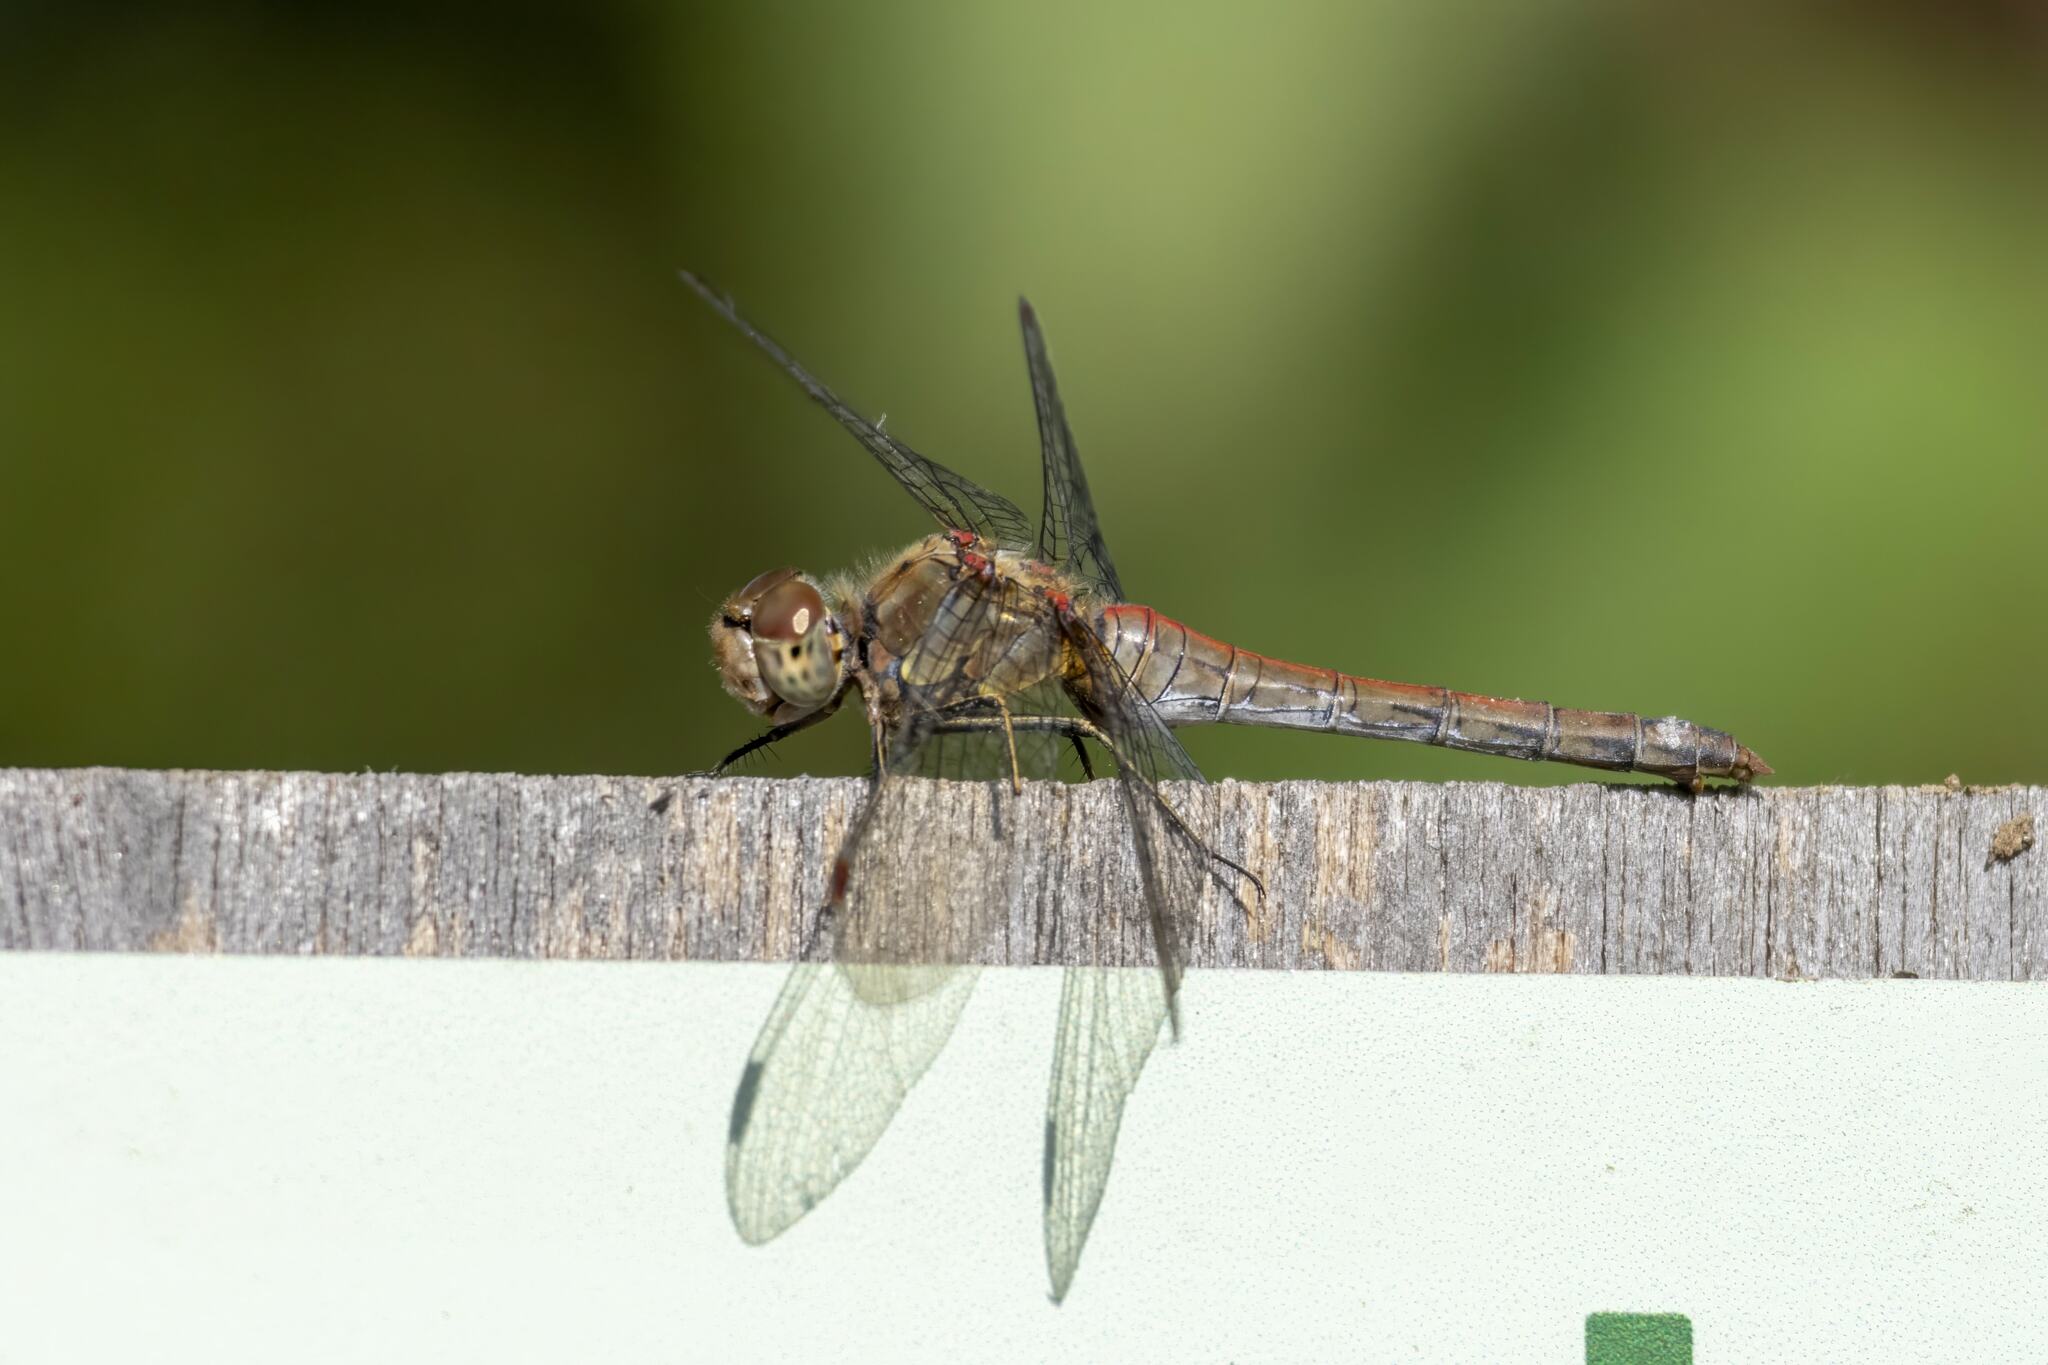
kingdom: Animalia
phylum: Arthropoda
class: Insecta
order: Odonata
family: Libellulidae
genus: Sympetrum
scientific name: Sympetrum striolatum
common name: Common darter
